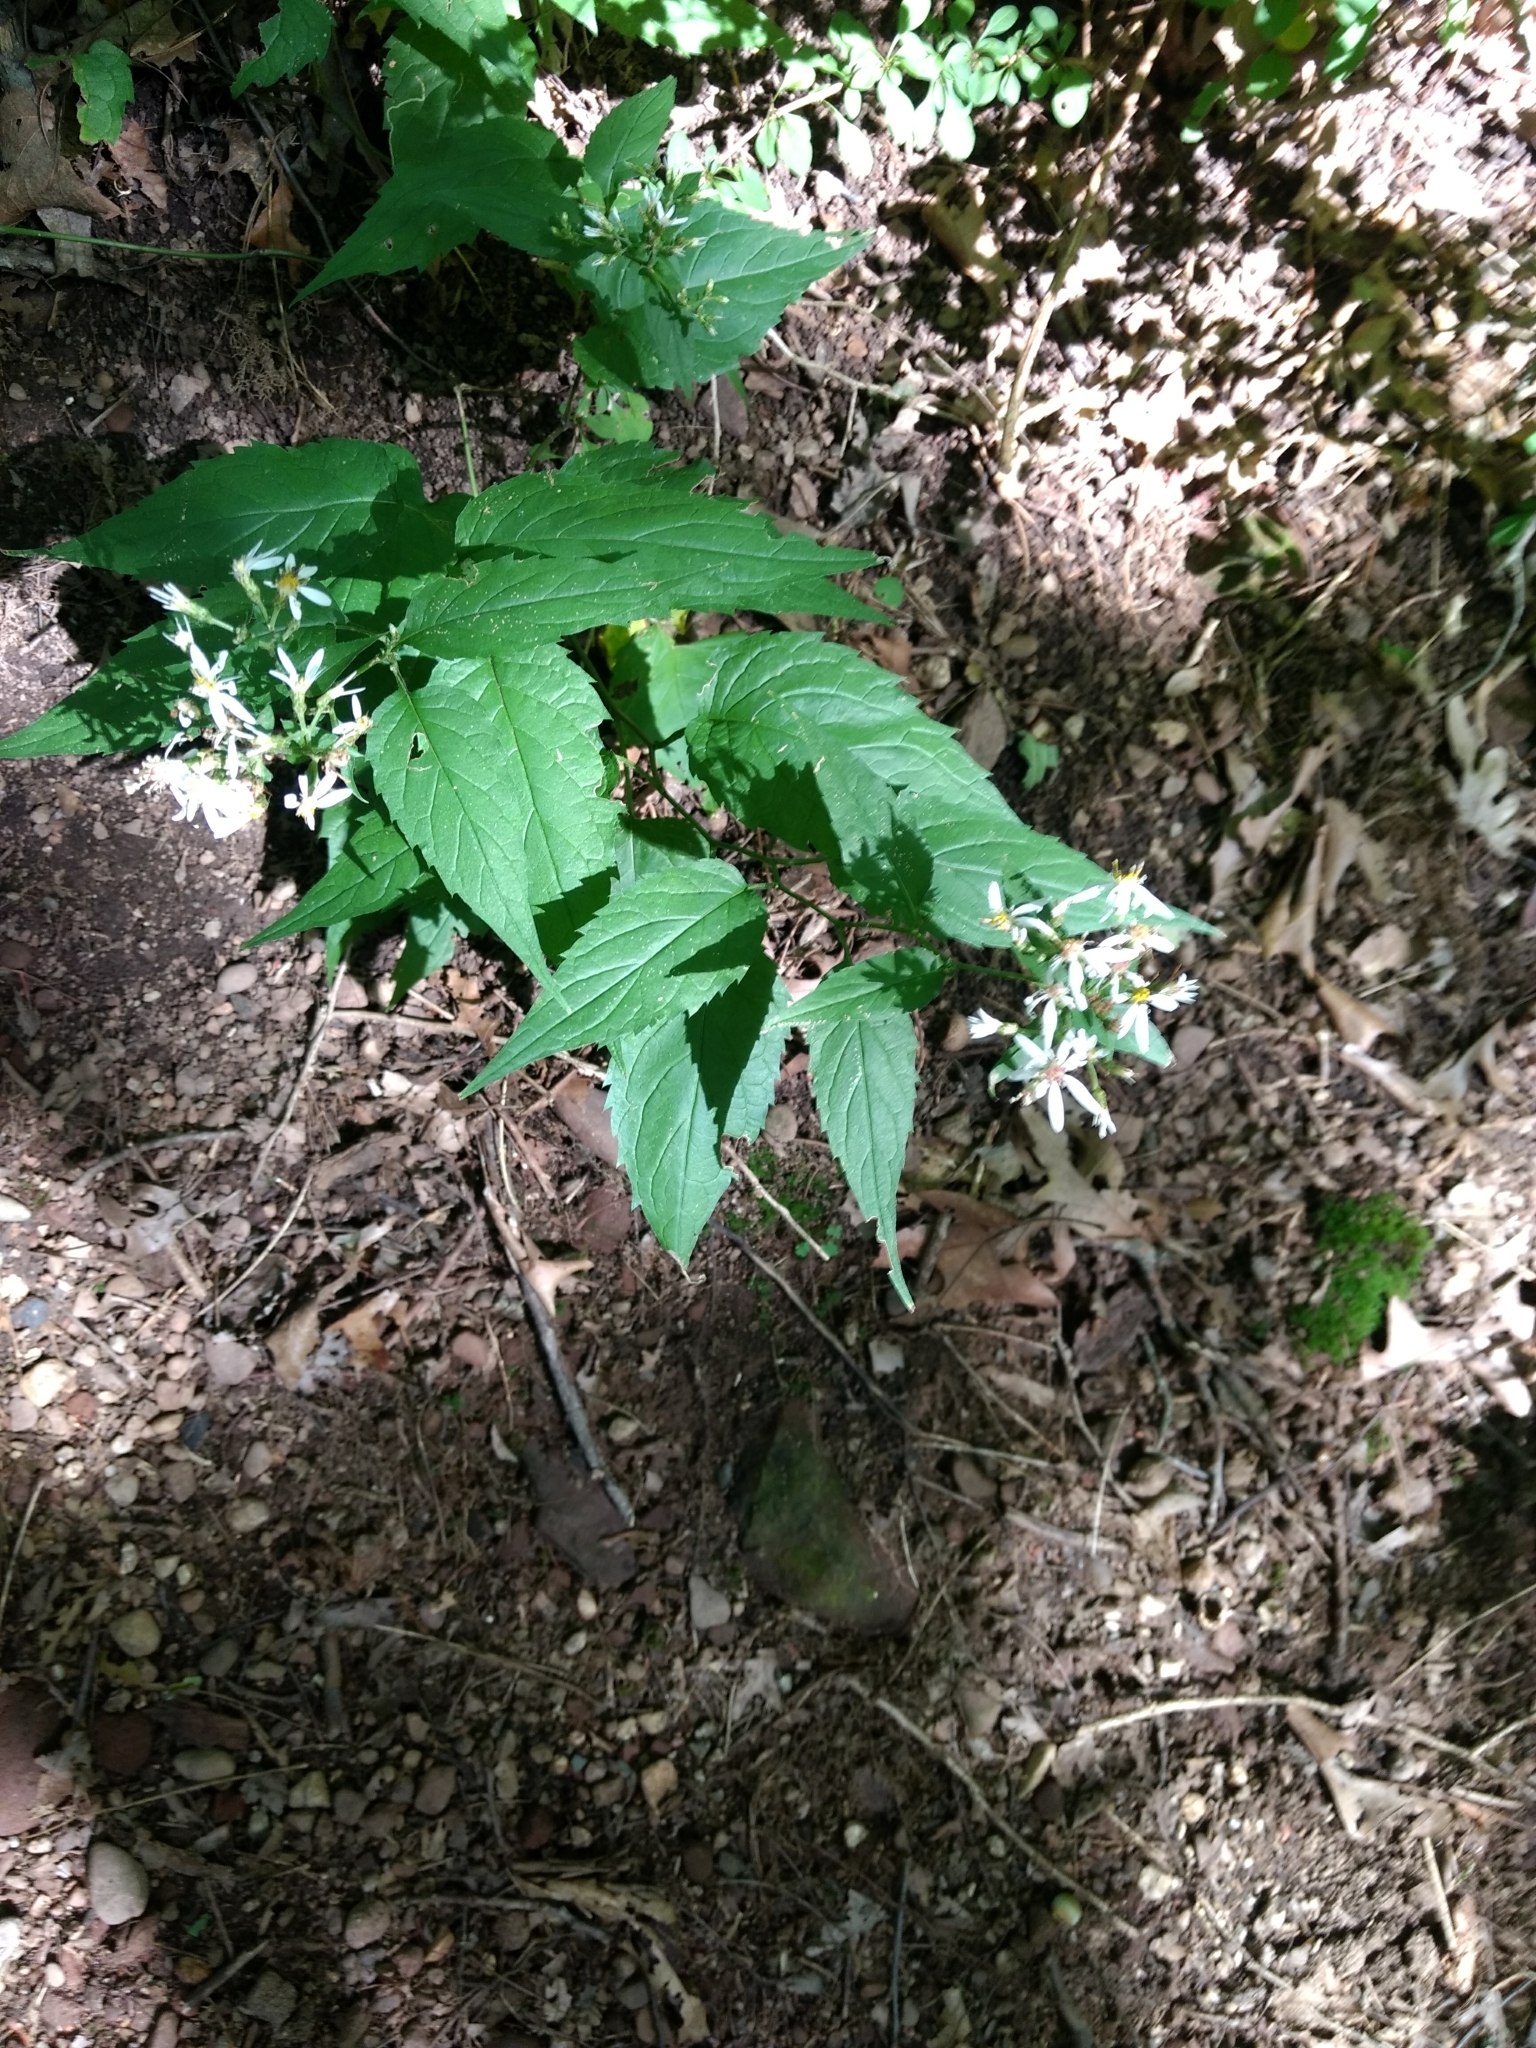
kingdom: Plantae
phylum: Tracheophyta
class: Magnoliopsida
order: Asterales
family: Asteraceae
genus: Eurybia
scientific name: Eurybia divaricata
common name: White wood aster
